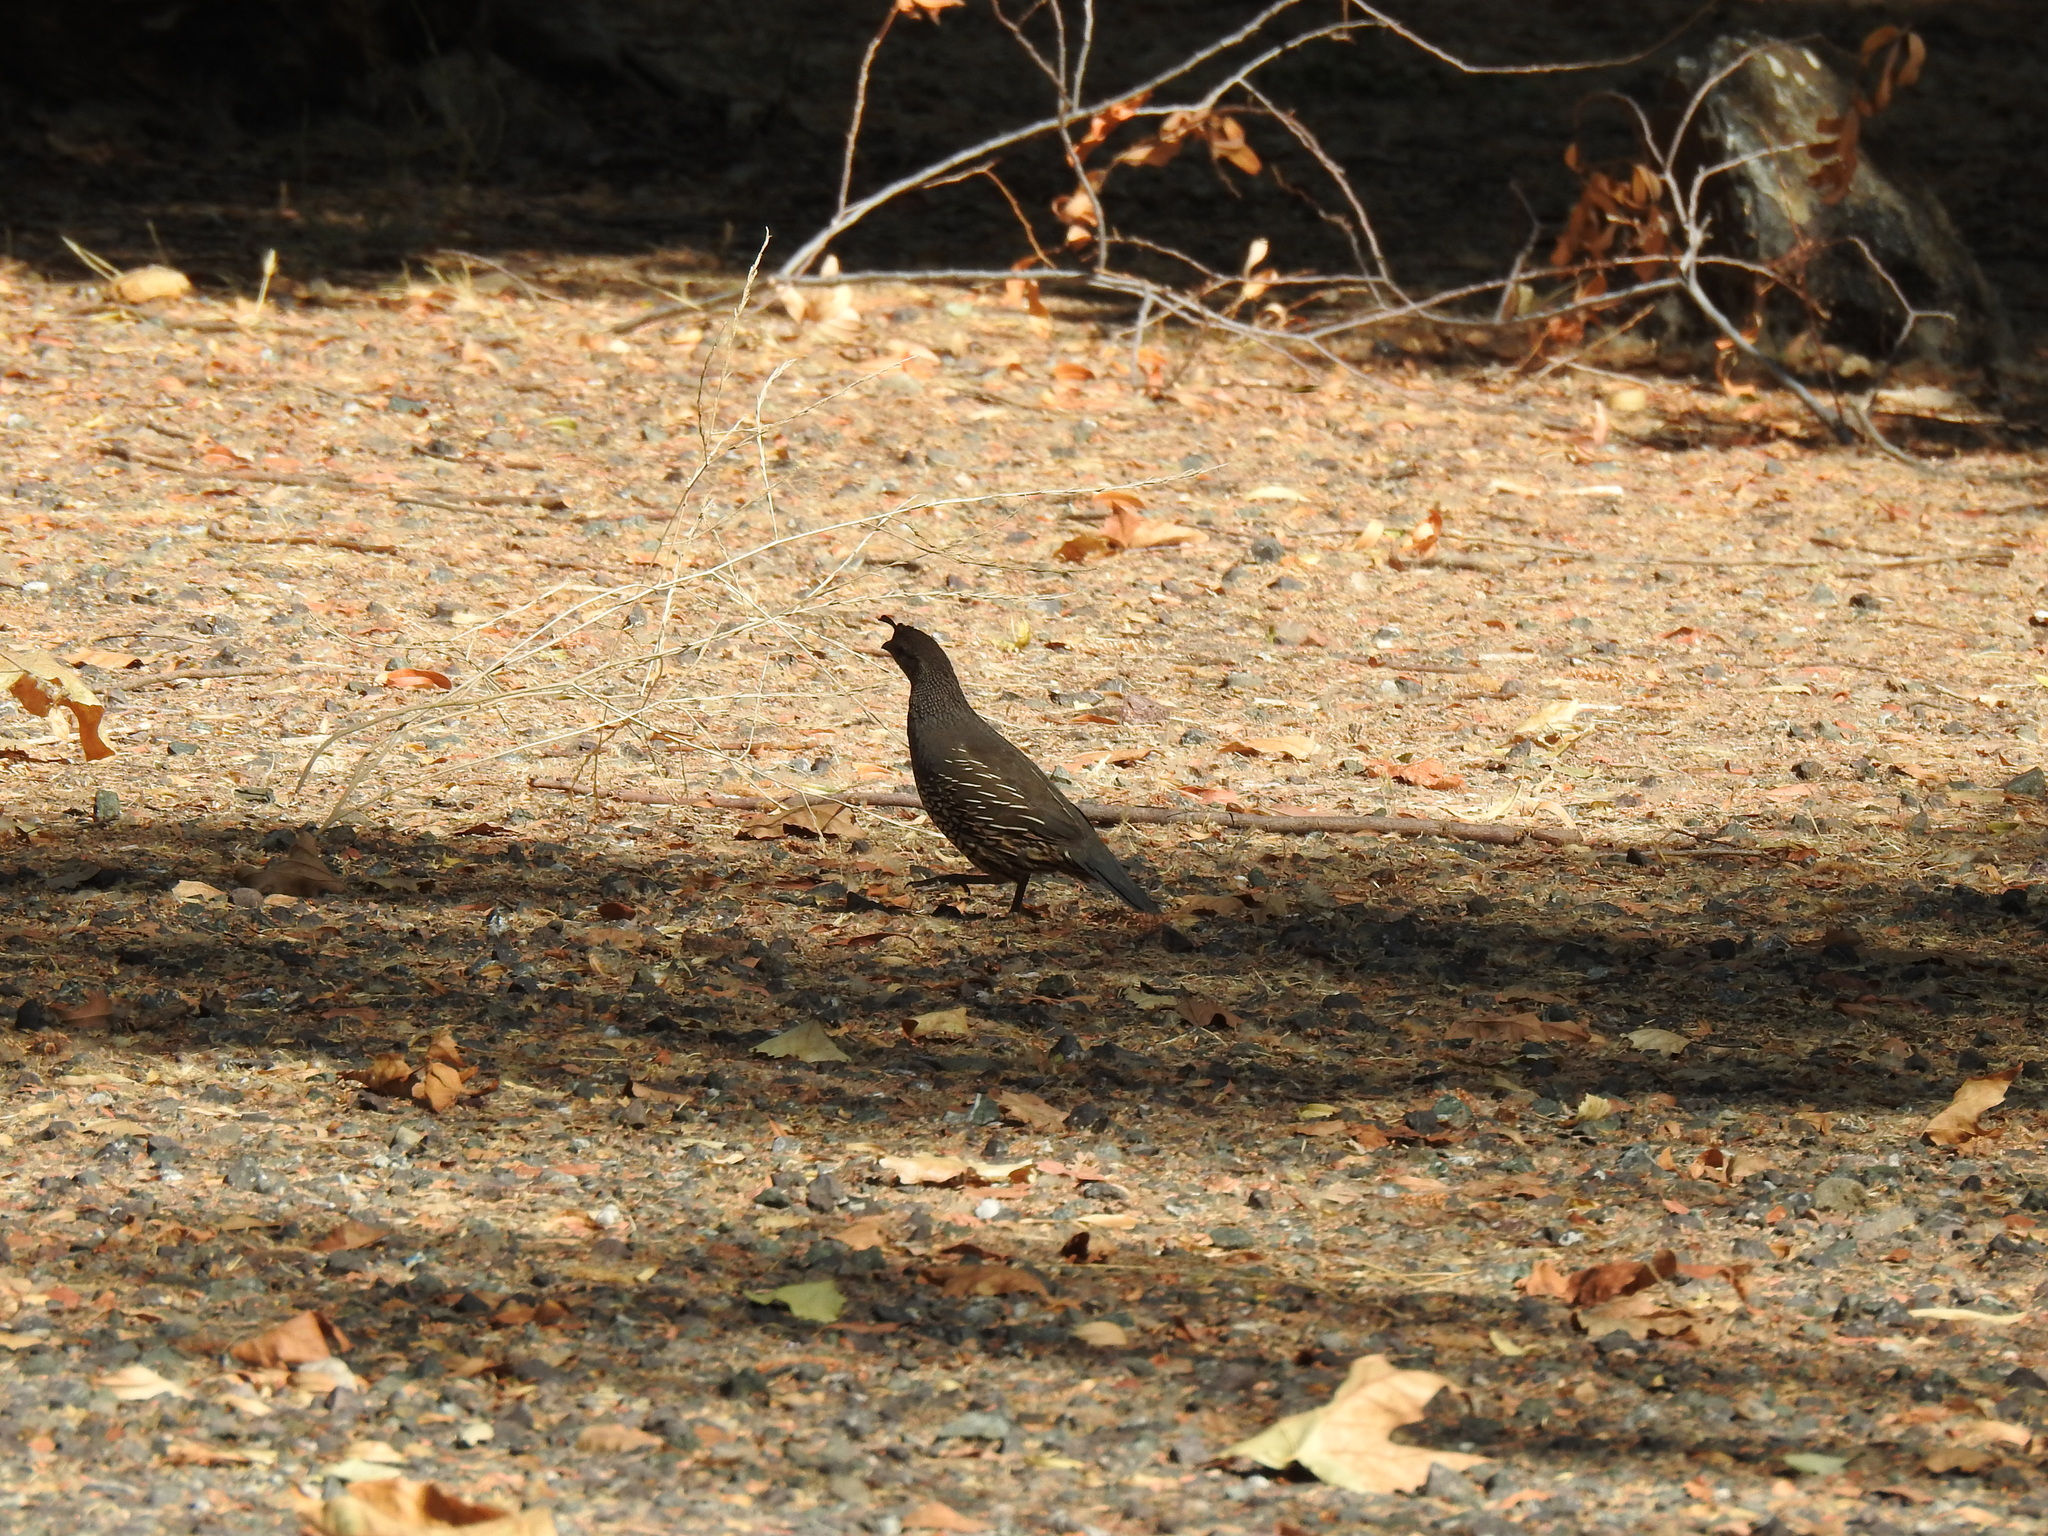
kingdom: Animalia
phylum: Chordata
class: Aves
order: Galliformes
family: Odontophoridae
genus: Callipepla
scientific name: Callipepla californica
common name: California quail
